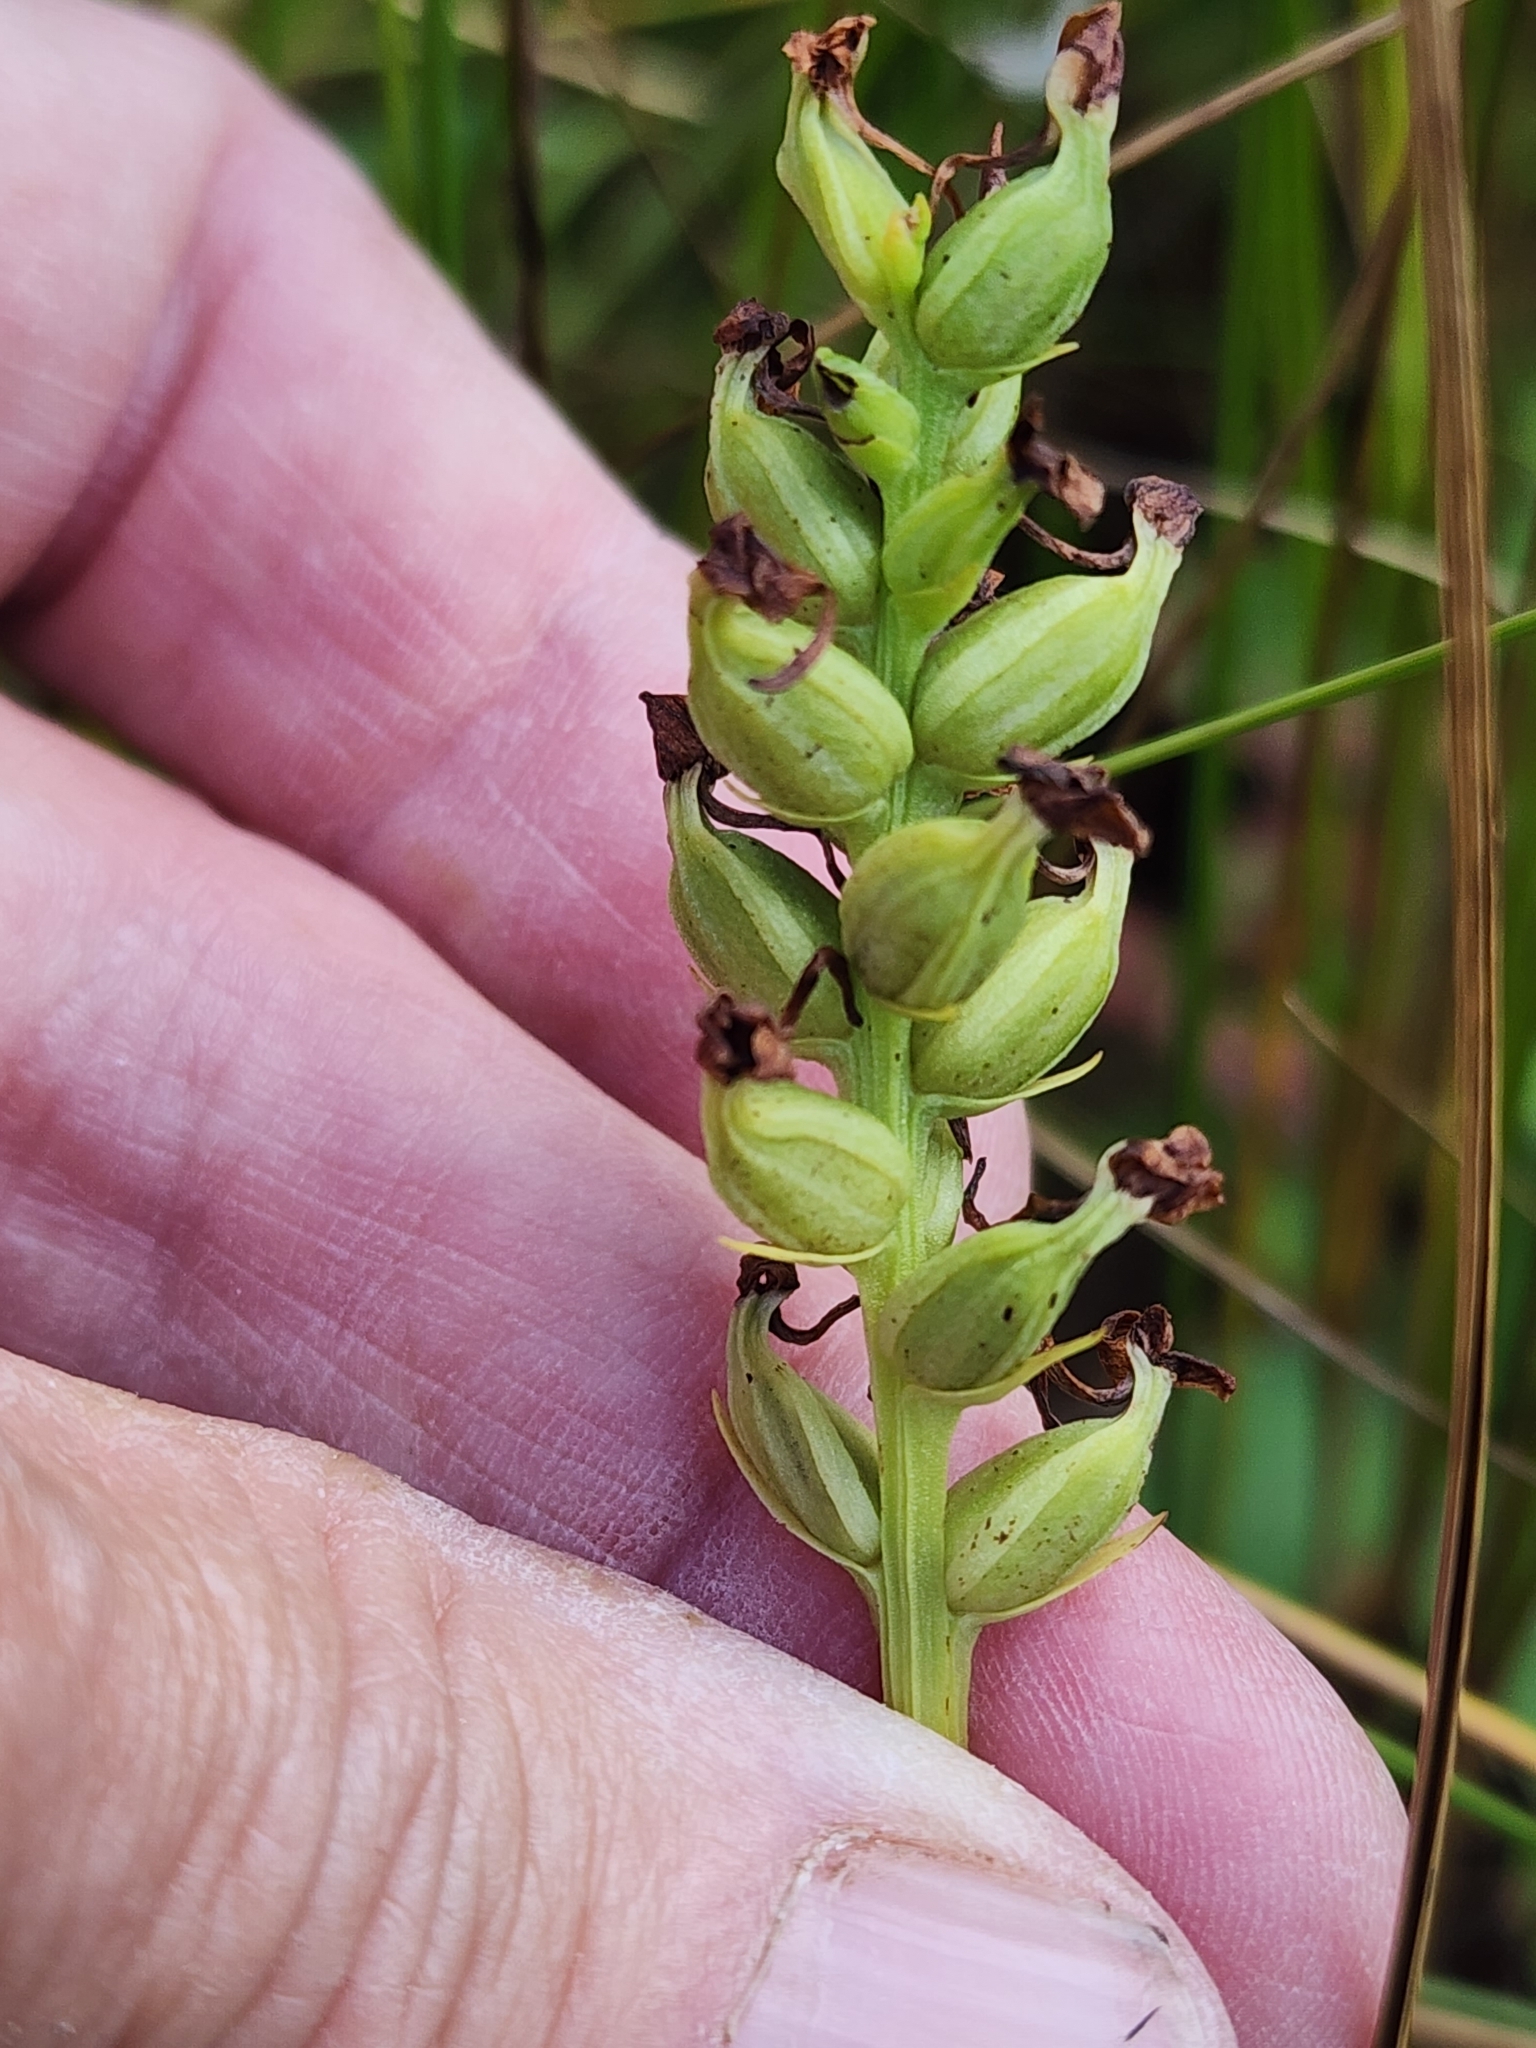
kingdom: Plantae
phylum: Tracheophyta
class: Liliopsida
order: Asparagales
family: Orchidaceae
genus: Platanthera
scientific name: Platanthera clavellata
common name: Club-spur orchid
